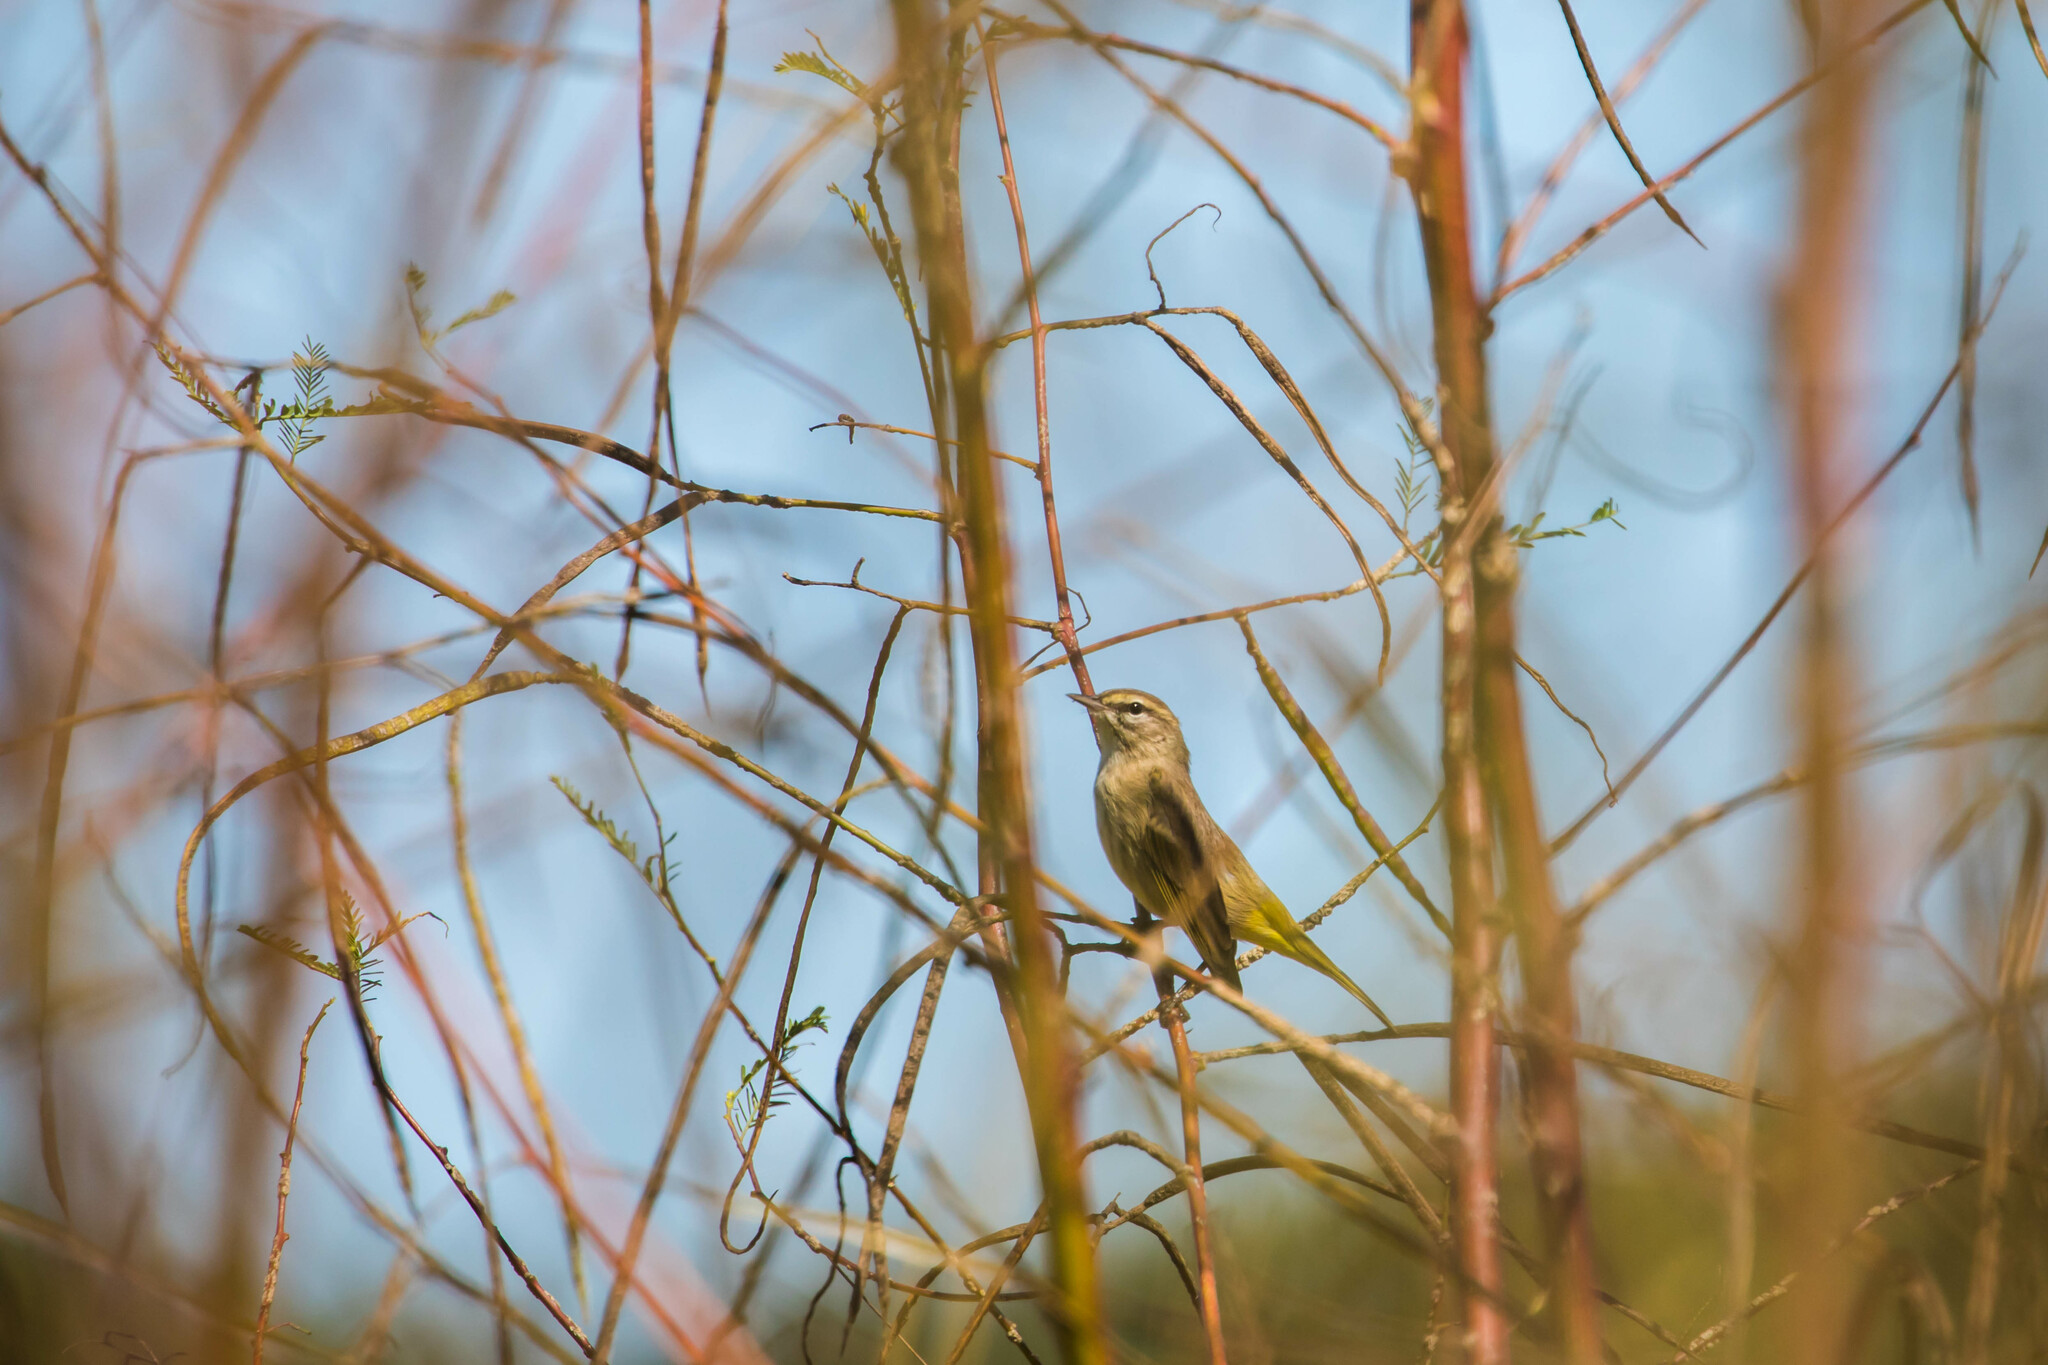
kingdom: Animalia
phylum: Chordata
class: Aves
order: Passeriformes
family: Parulidae
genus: Setophaga
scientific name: Setophaga palmarum
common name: Palm warbler
